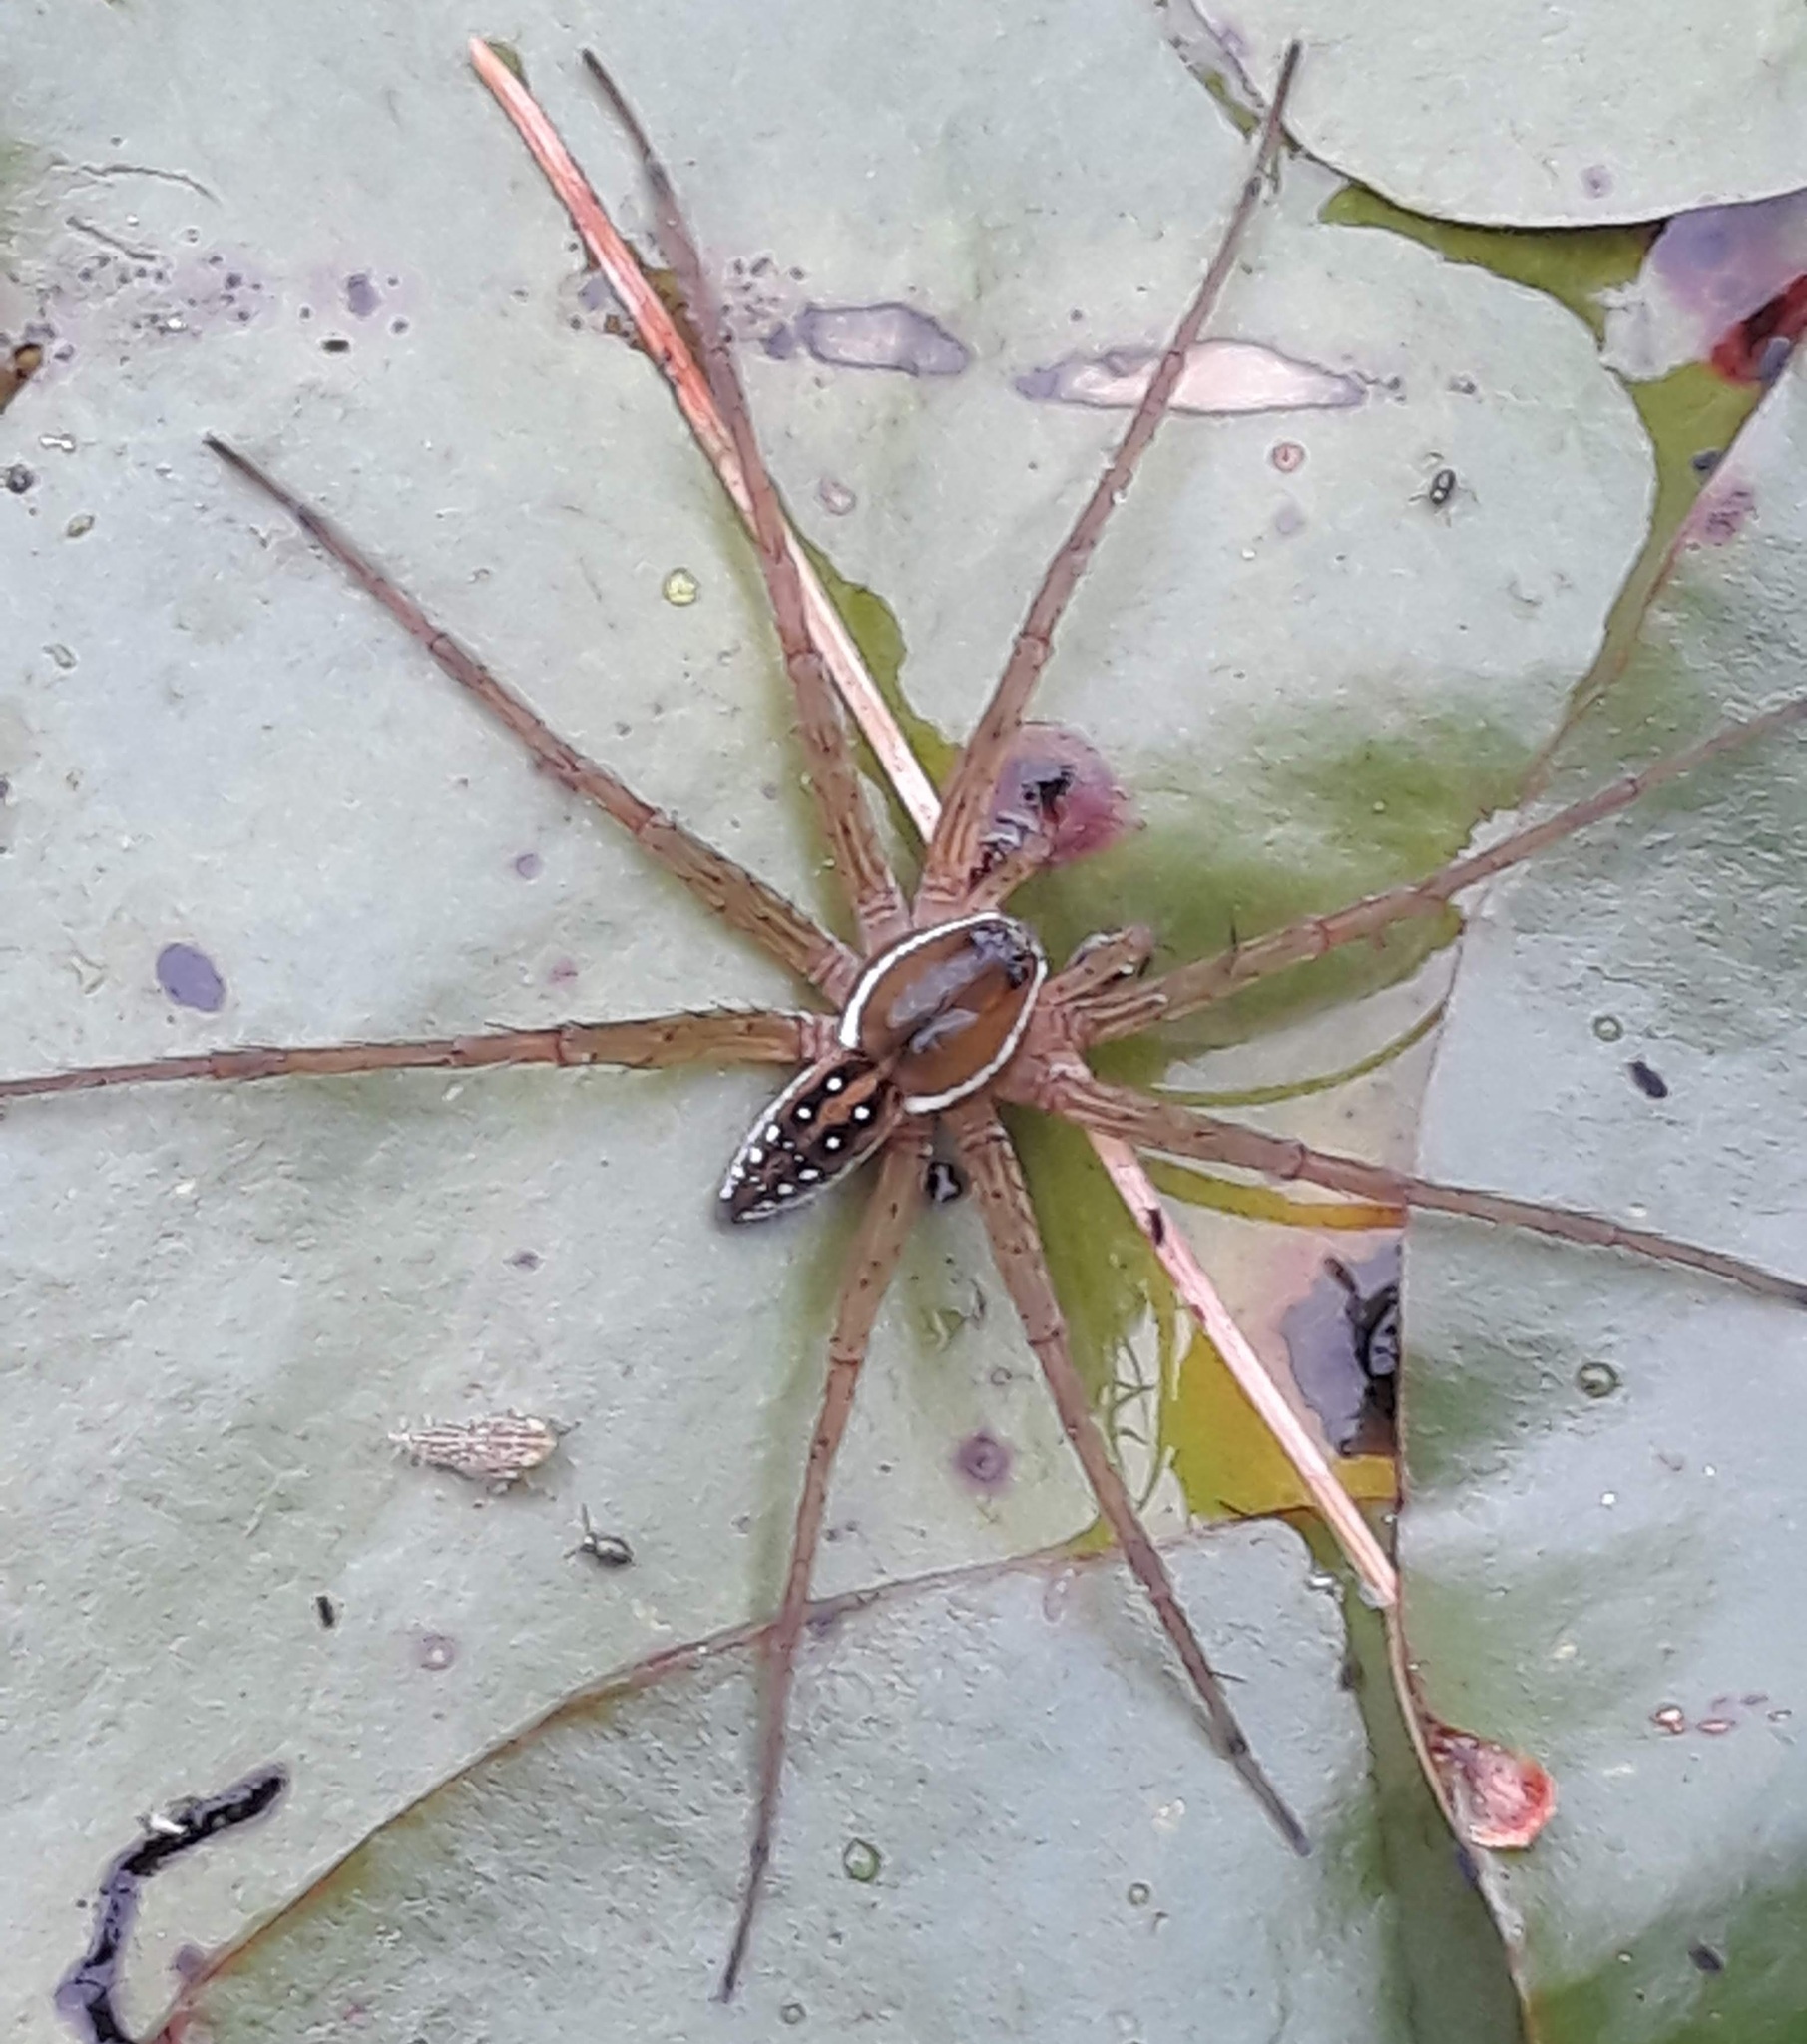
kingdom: Animalia
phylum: Arthropoda
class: Arachnida
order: Araneae
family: Pisauridae
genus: Dolomedes
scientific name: Dolomedes triton
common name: Six-spotted fishing spider
